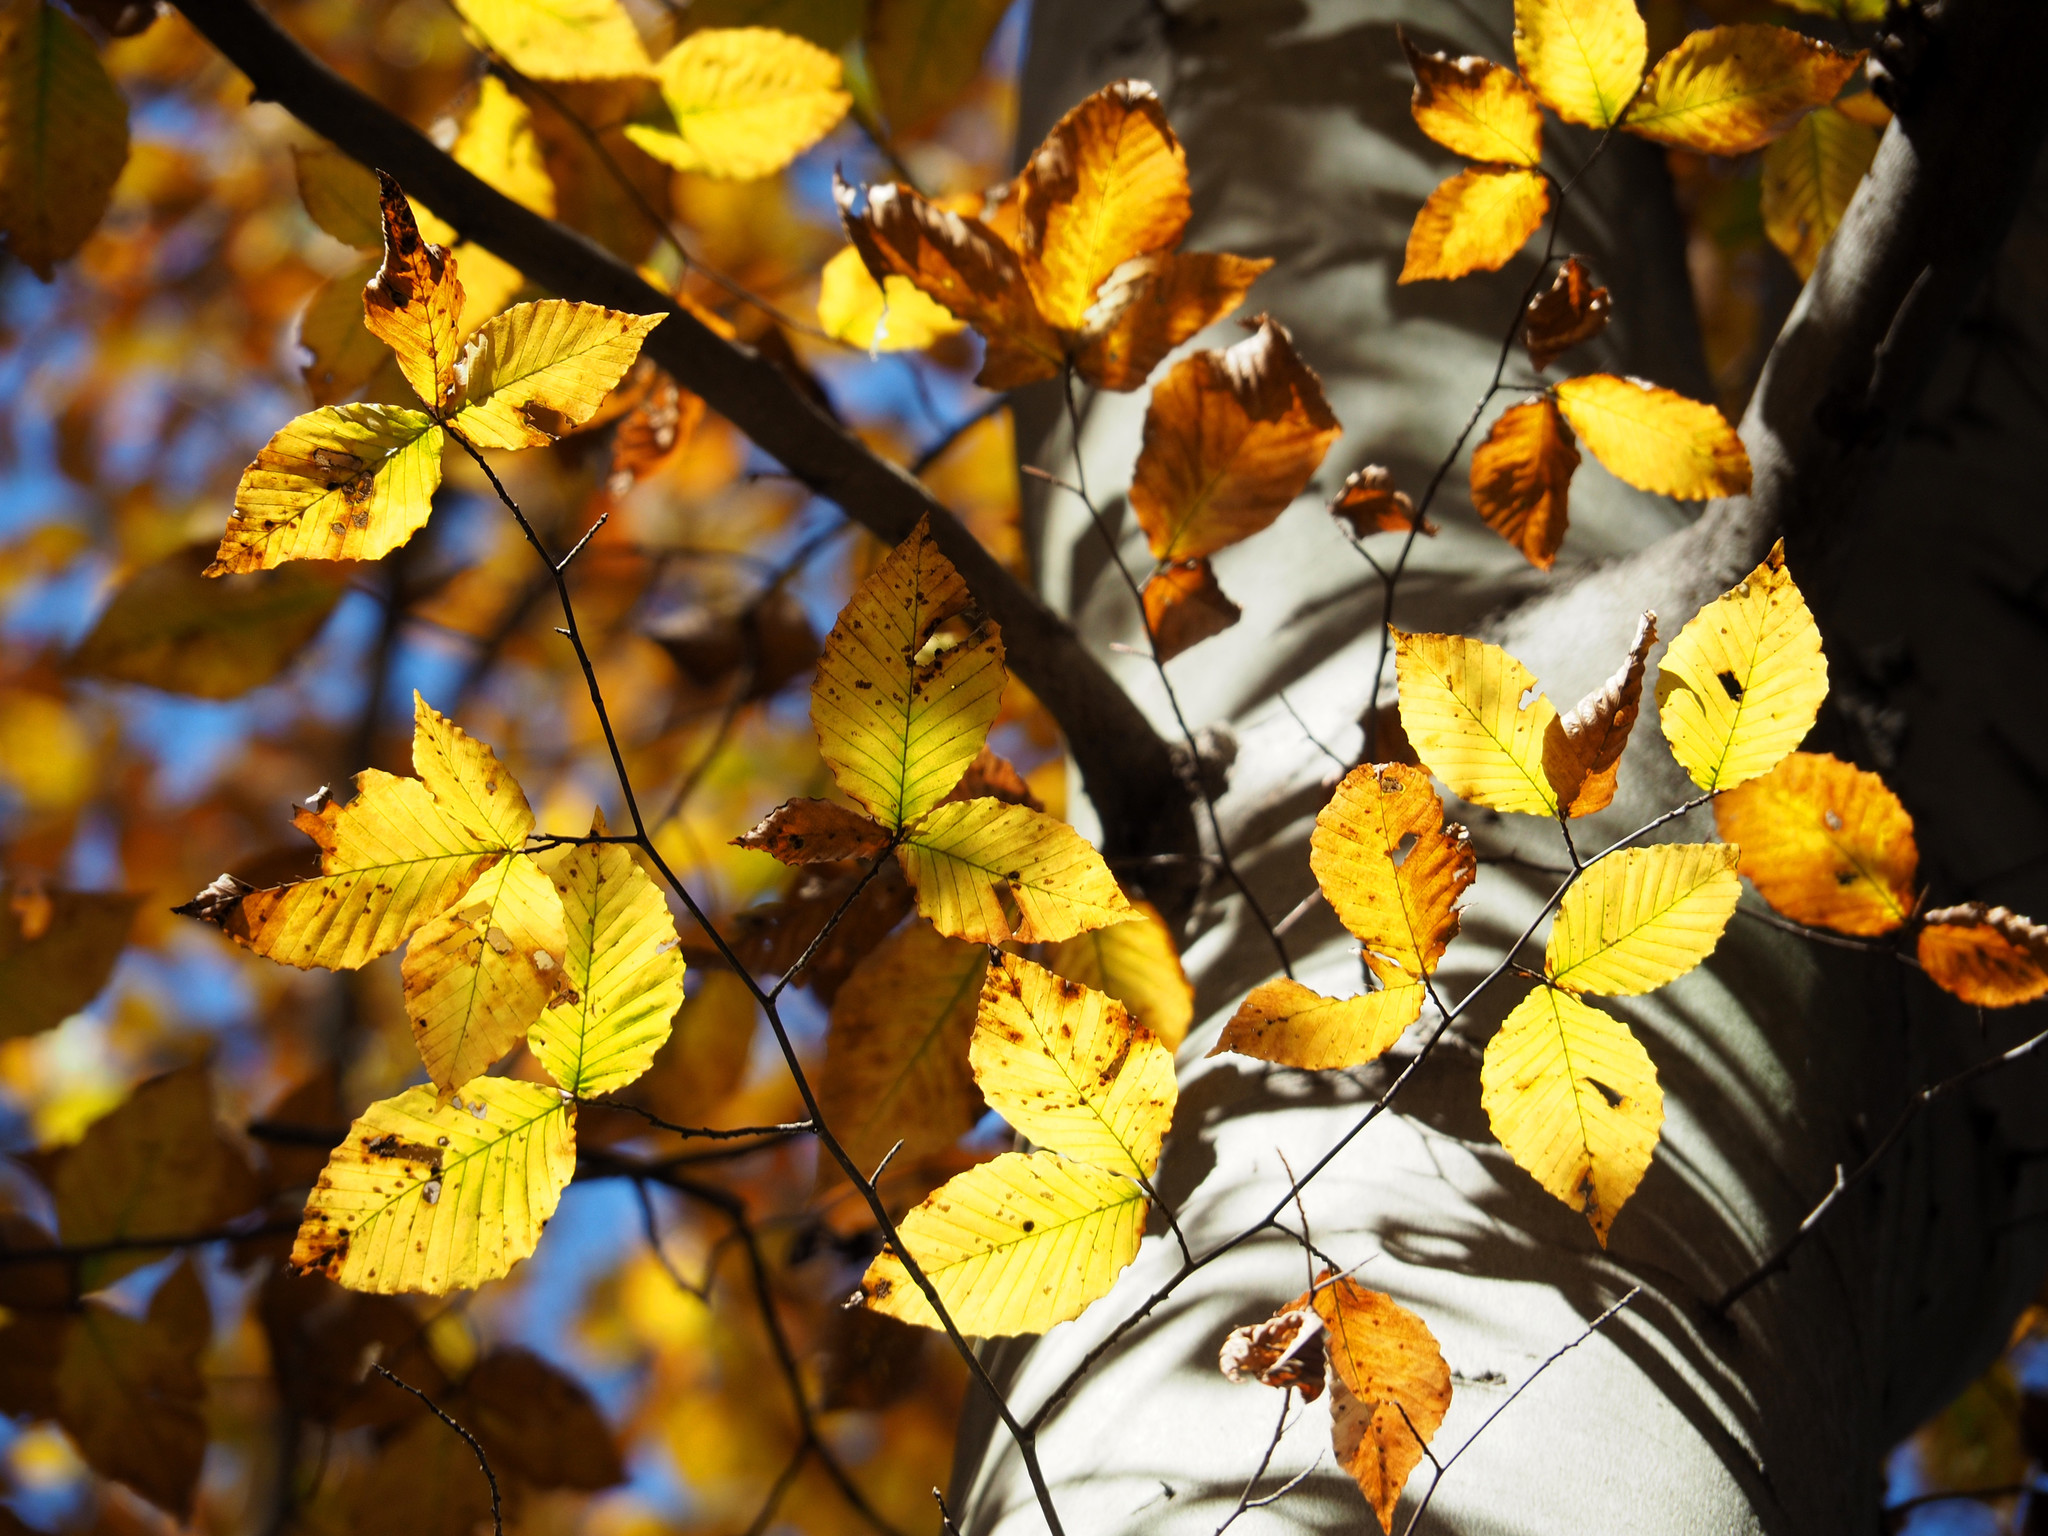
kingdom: Plantae
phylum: Tracheophyta
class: Magnoliopsida
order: Fagales
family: Fagaceae
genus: Fagus
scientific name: Fagus grandifolia
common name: American beech
